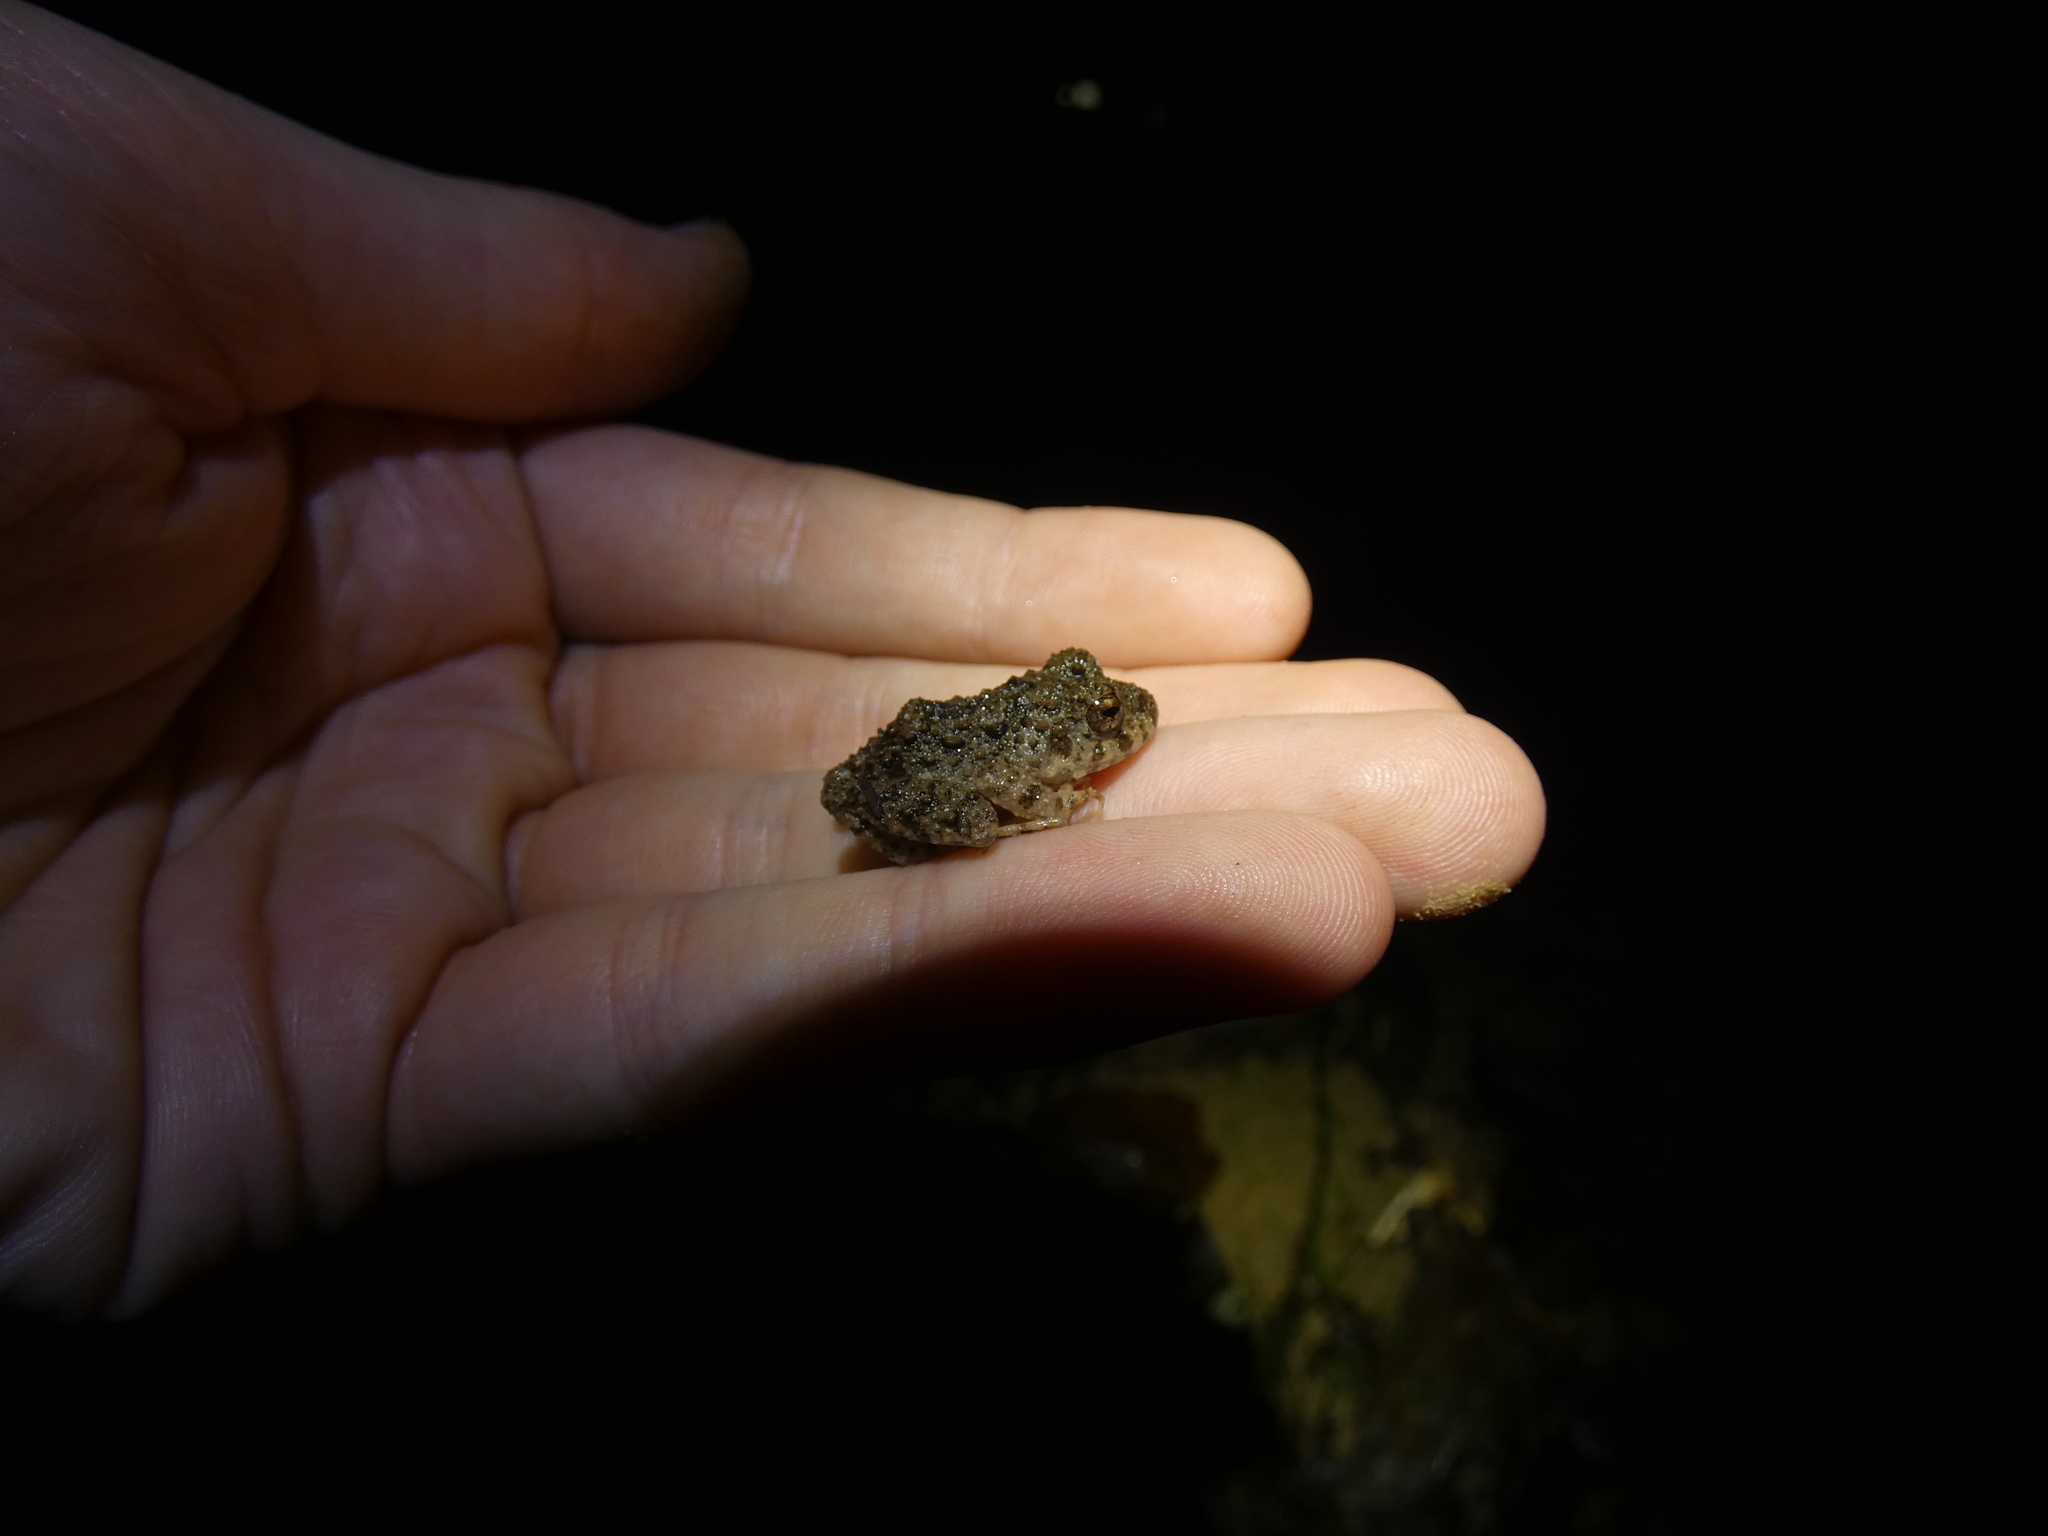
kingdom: Animalia
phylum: Chordata
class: Amphibia
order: Anura
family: Craugastoridae
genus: Oreobates
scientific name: Oreobates quixensis
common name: Common big-headed frog
